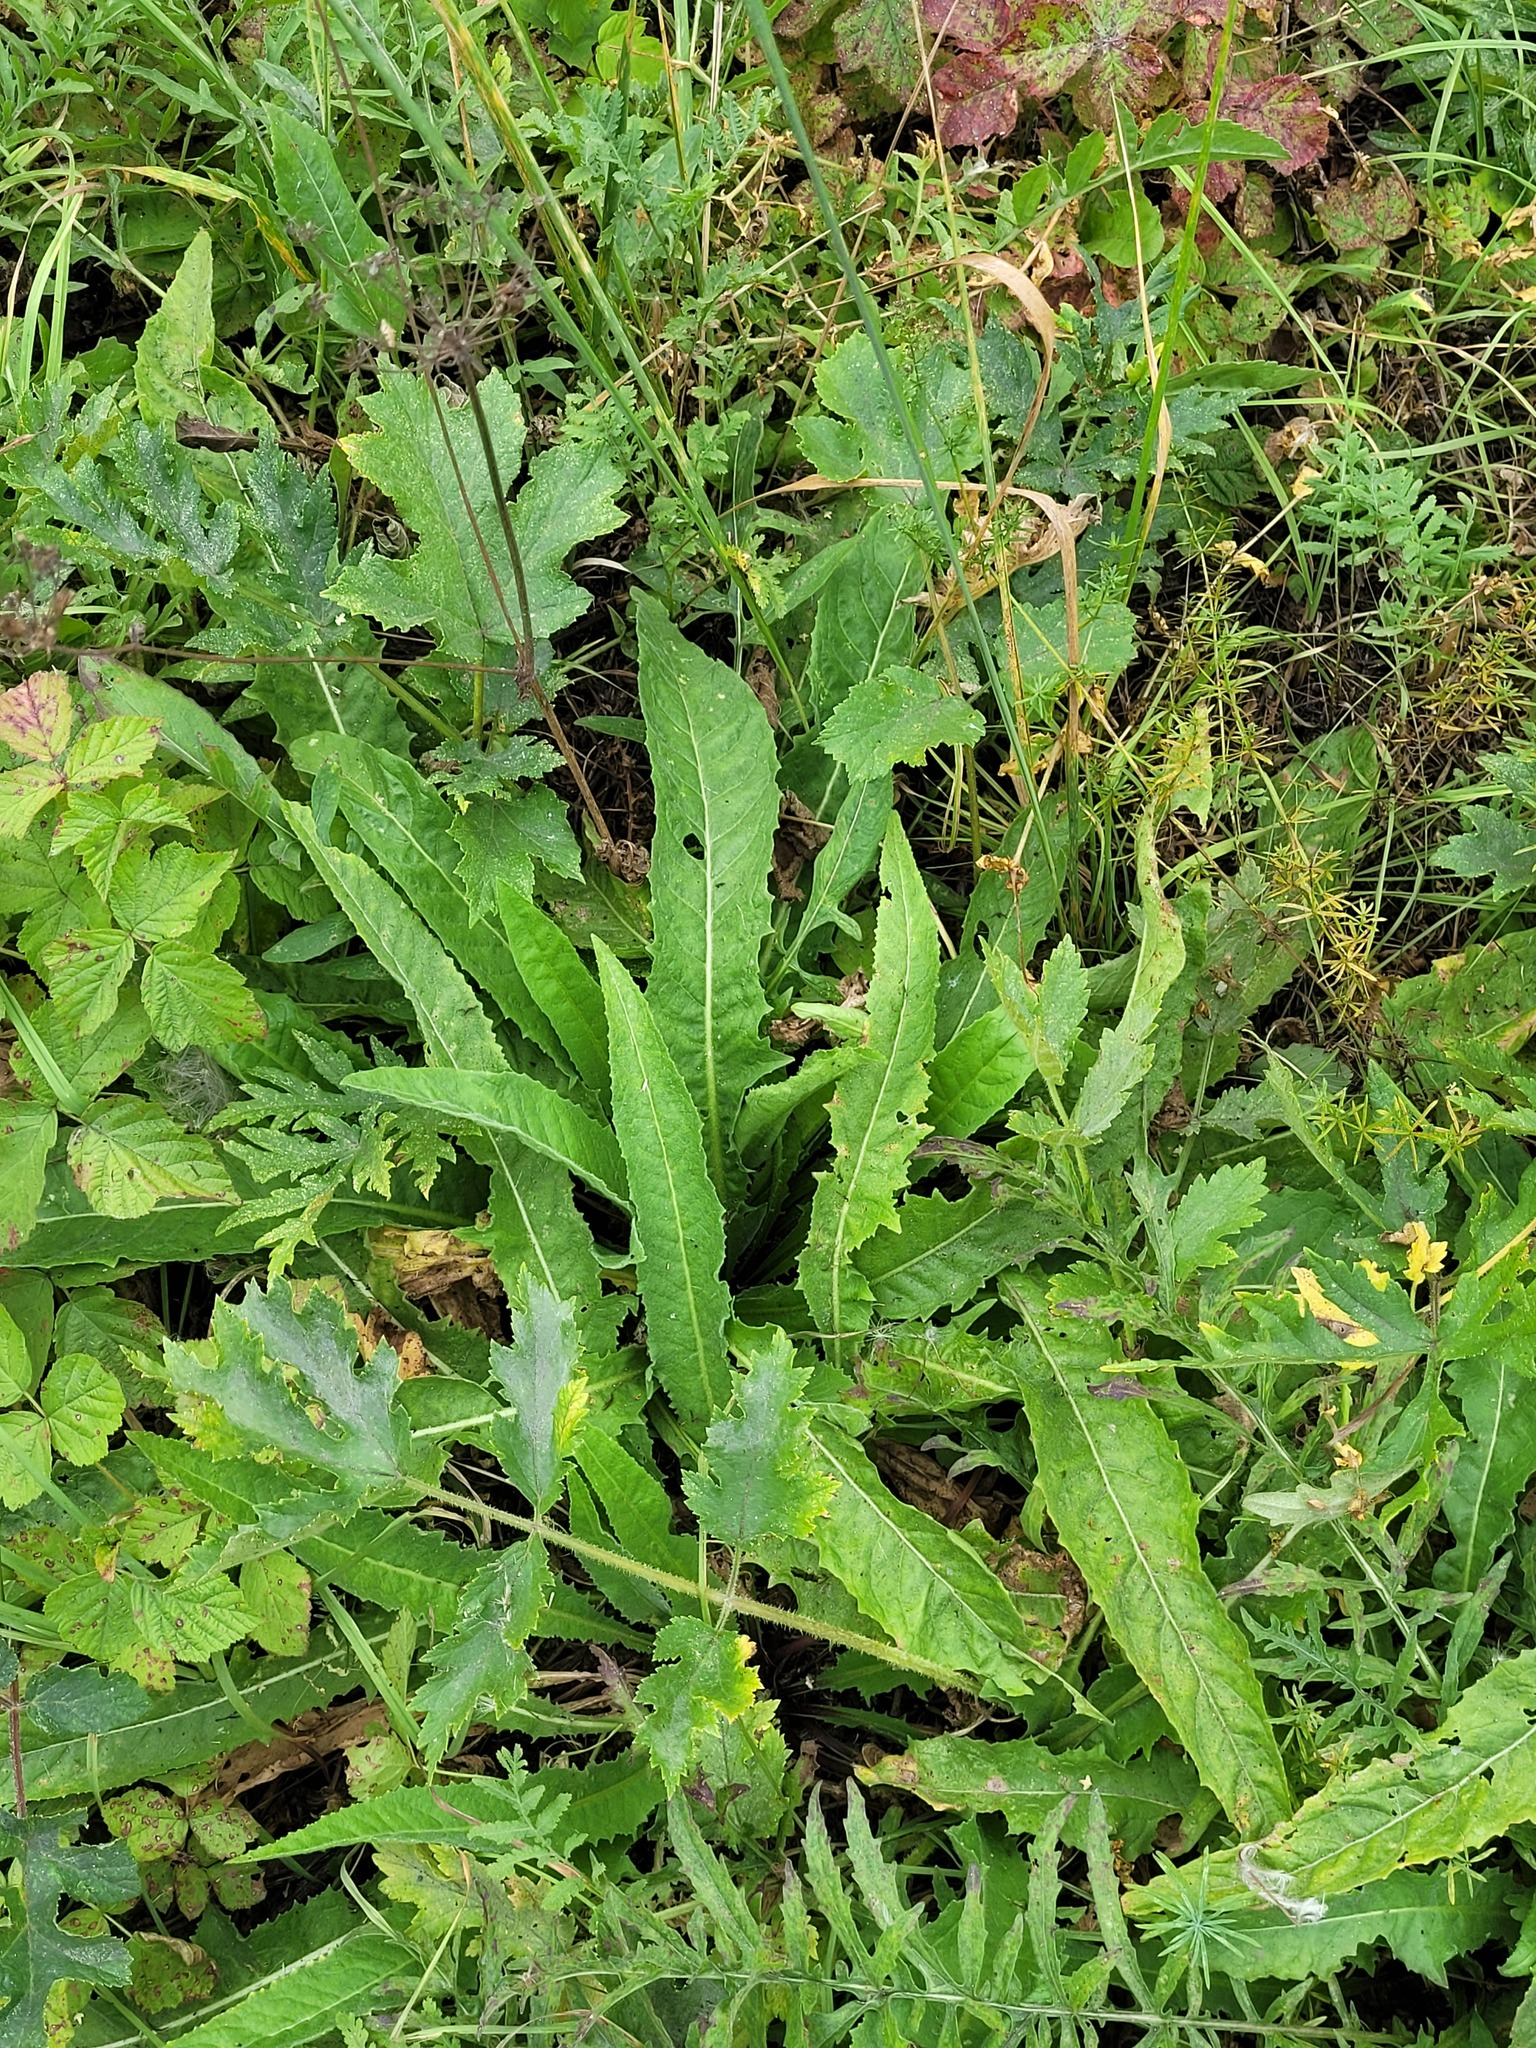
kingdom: Plantae
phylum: Tracheophyta
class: Magnoliopsida
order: Brassicales
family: Brassicaceae
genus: Bunias
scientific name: Bunias orientalis
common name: Warty-cabbage
